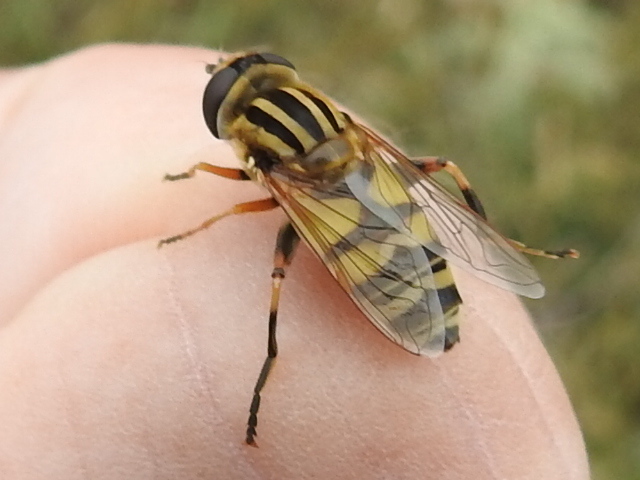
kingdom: Animalia
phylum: Arthropoda
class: Insecta
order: Diptera
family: Syrphidae
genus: Helophilus
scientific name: Helophilus latifrons
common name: Broad-headed marsh fly
